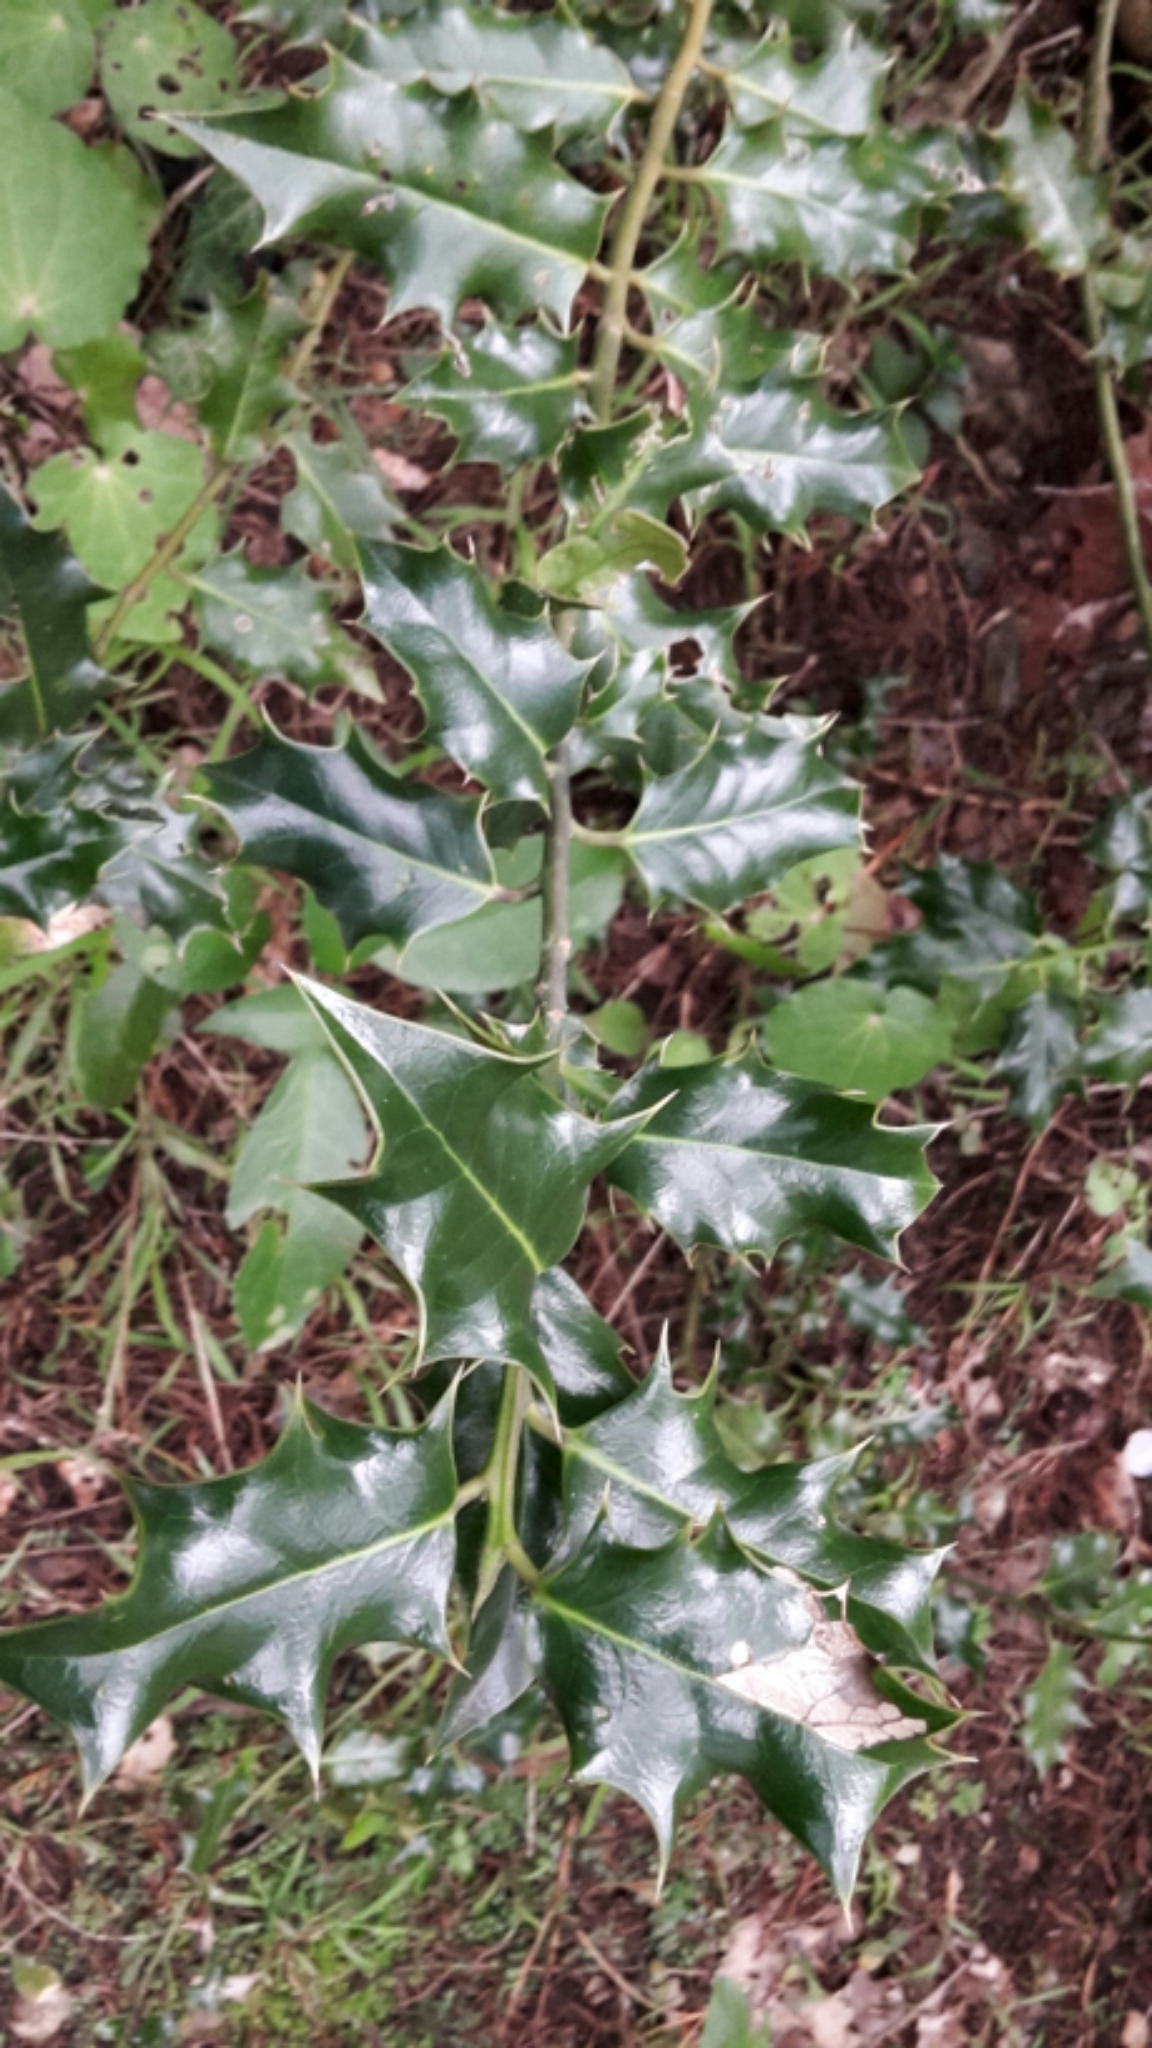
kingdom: Plantae
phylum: Tracheophyta
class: Magnoliopsida
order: Aquifoliales
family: Aquifoliaceae
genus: Ilex
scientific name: Ilex aquifolium
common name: English holly
